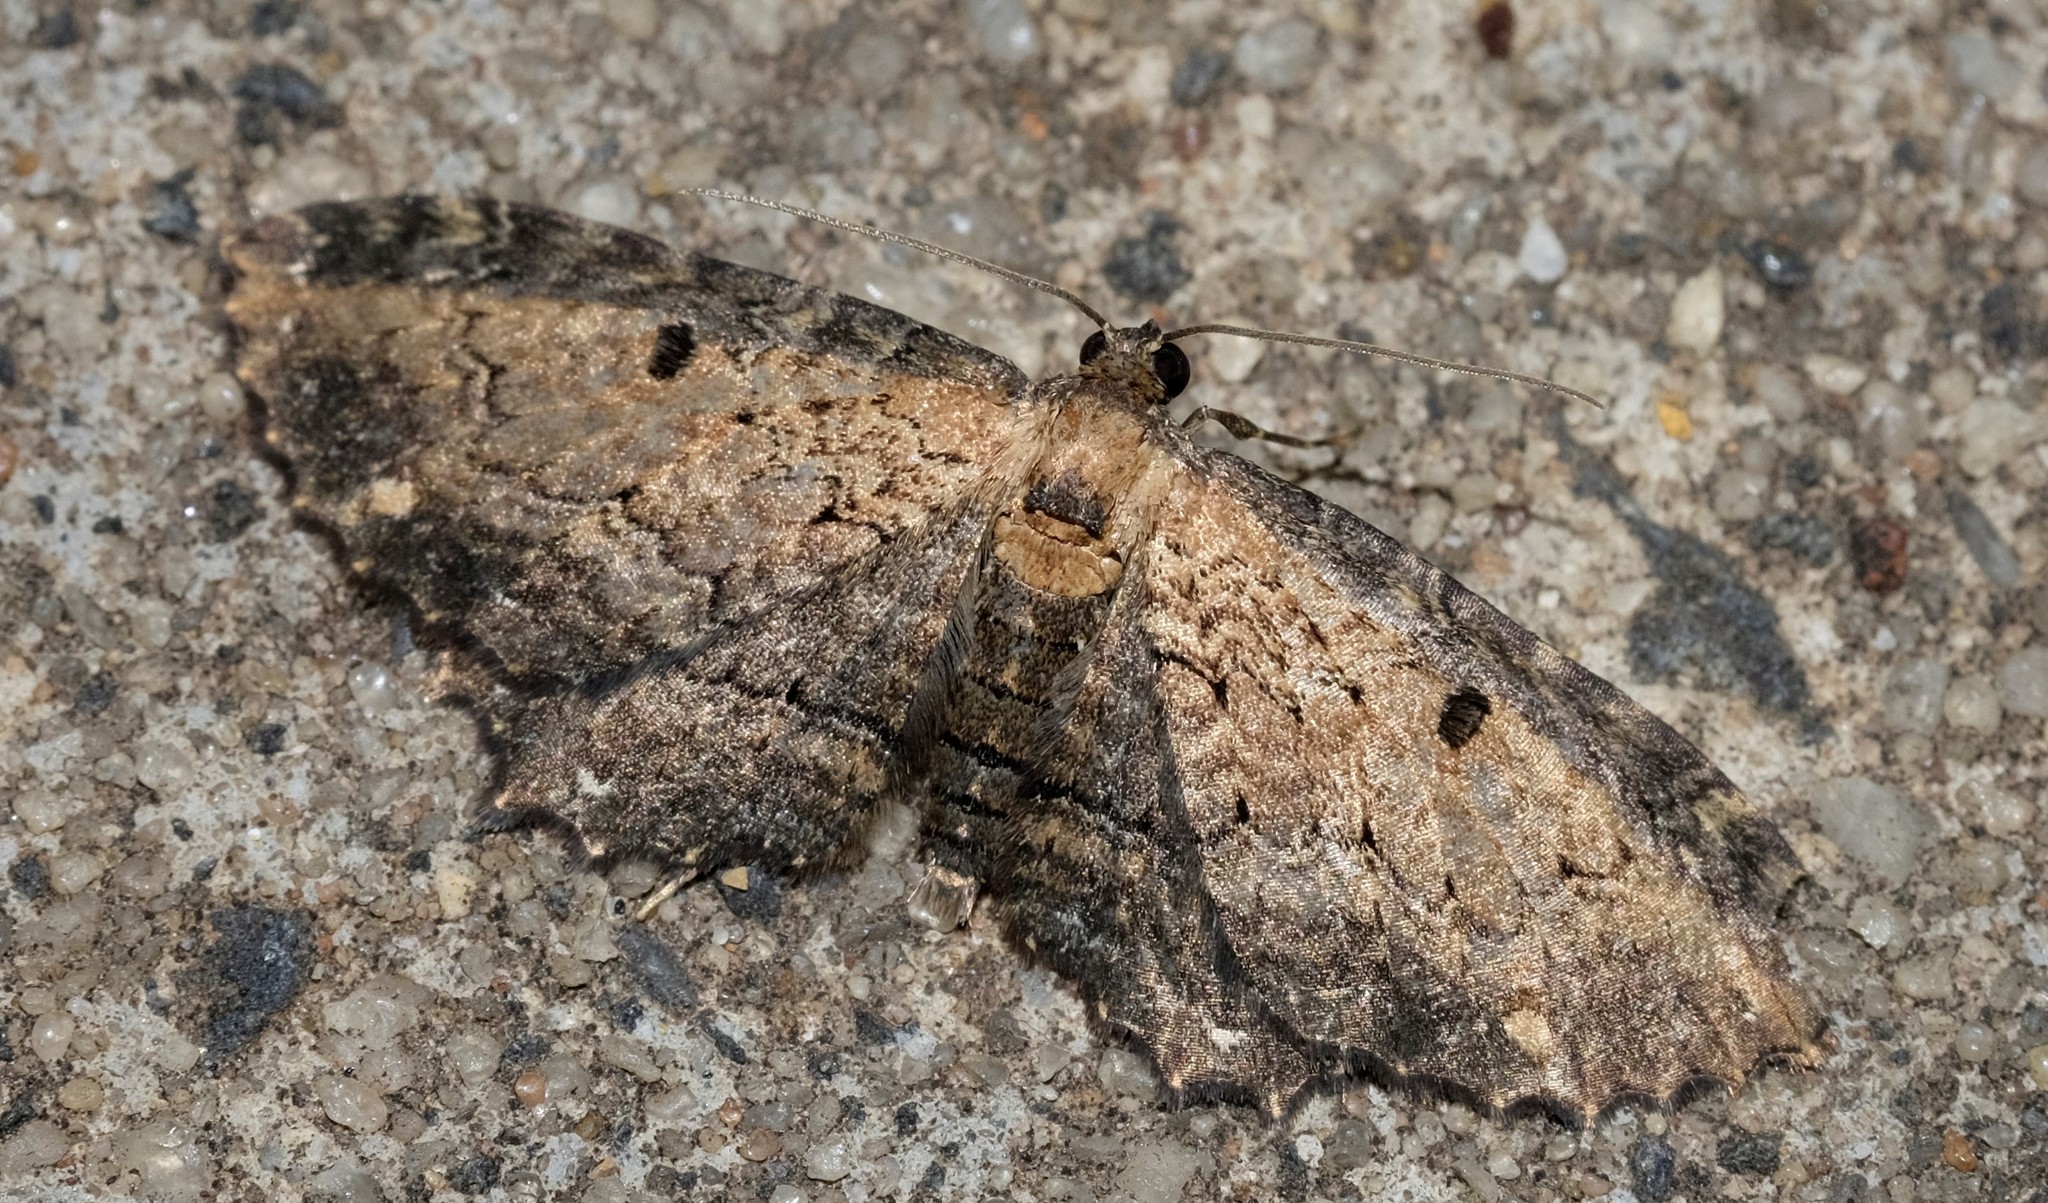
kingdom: Animalia
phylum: Arthropoda
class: Insecta
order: Lepidoptera
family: Geometridae
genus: Eccymatoge
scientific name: Eccymatoge callizona
